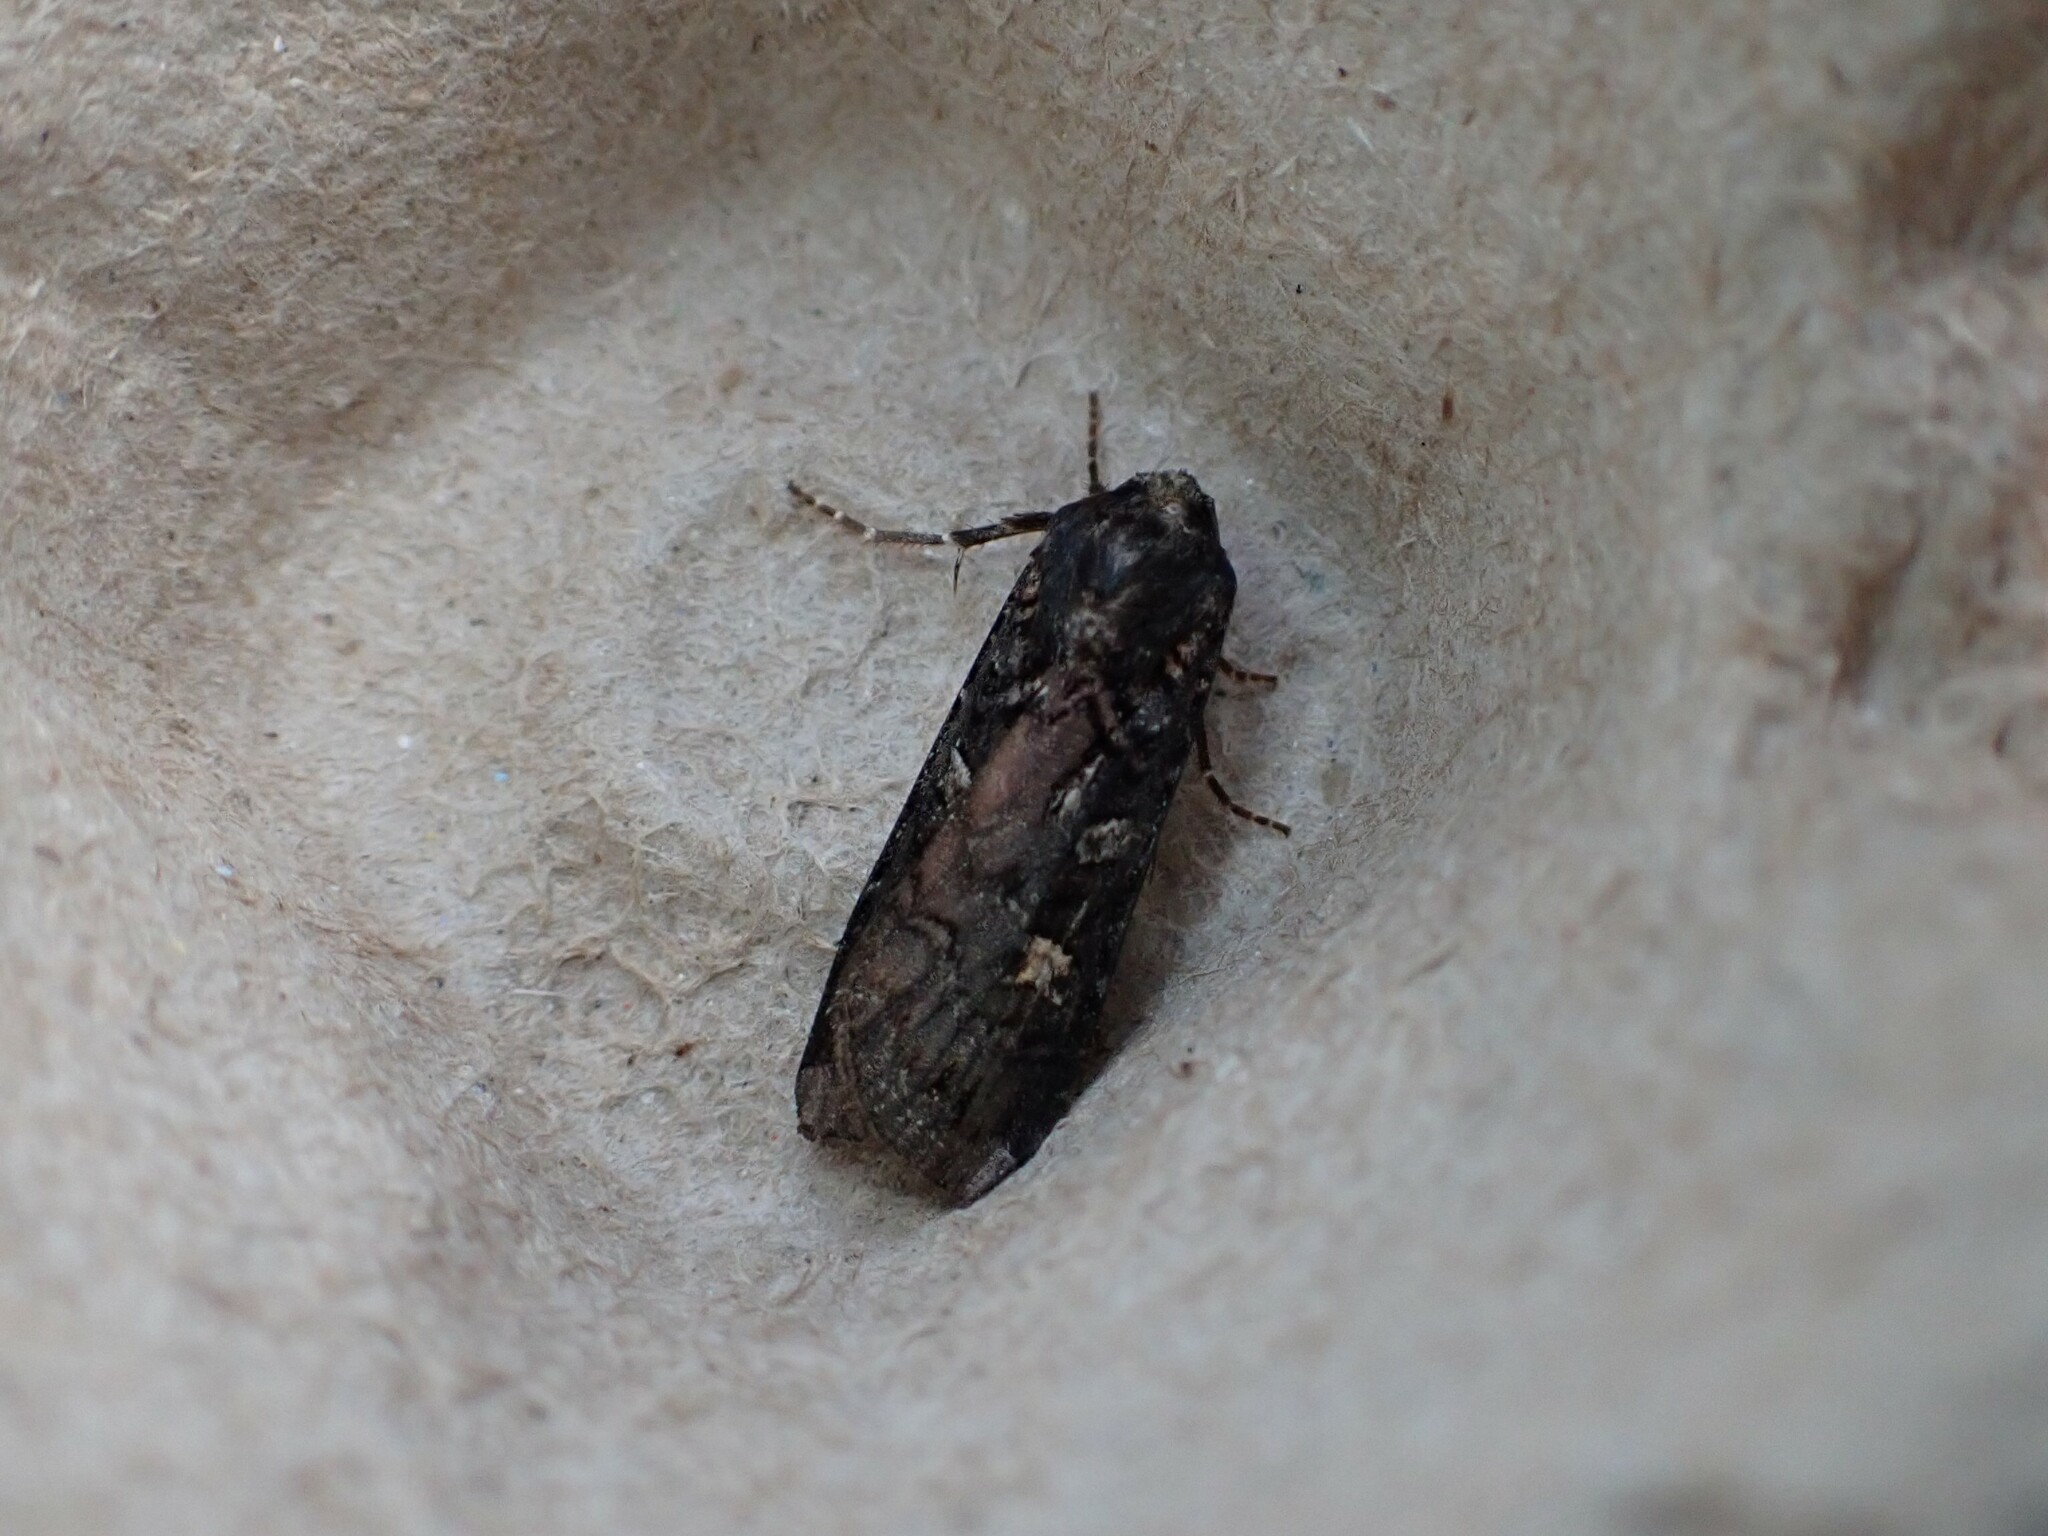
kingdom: Animalia
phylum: Arthropoda
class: Insecta
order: Lepidoptera
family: Noctuidae
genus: Actebia
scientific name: Actebia fennica
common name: Eversmann's rustic
